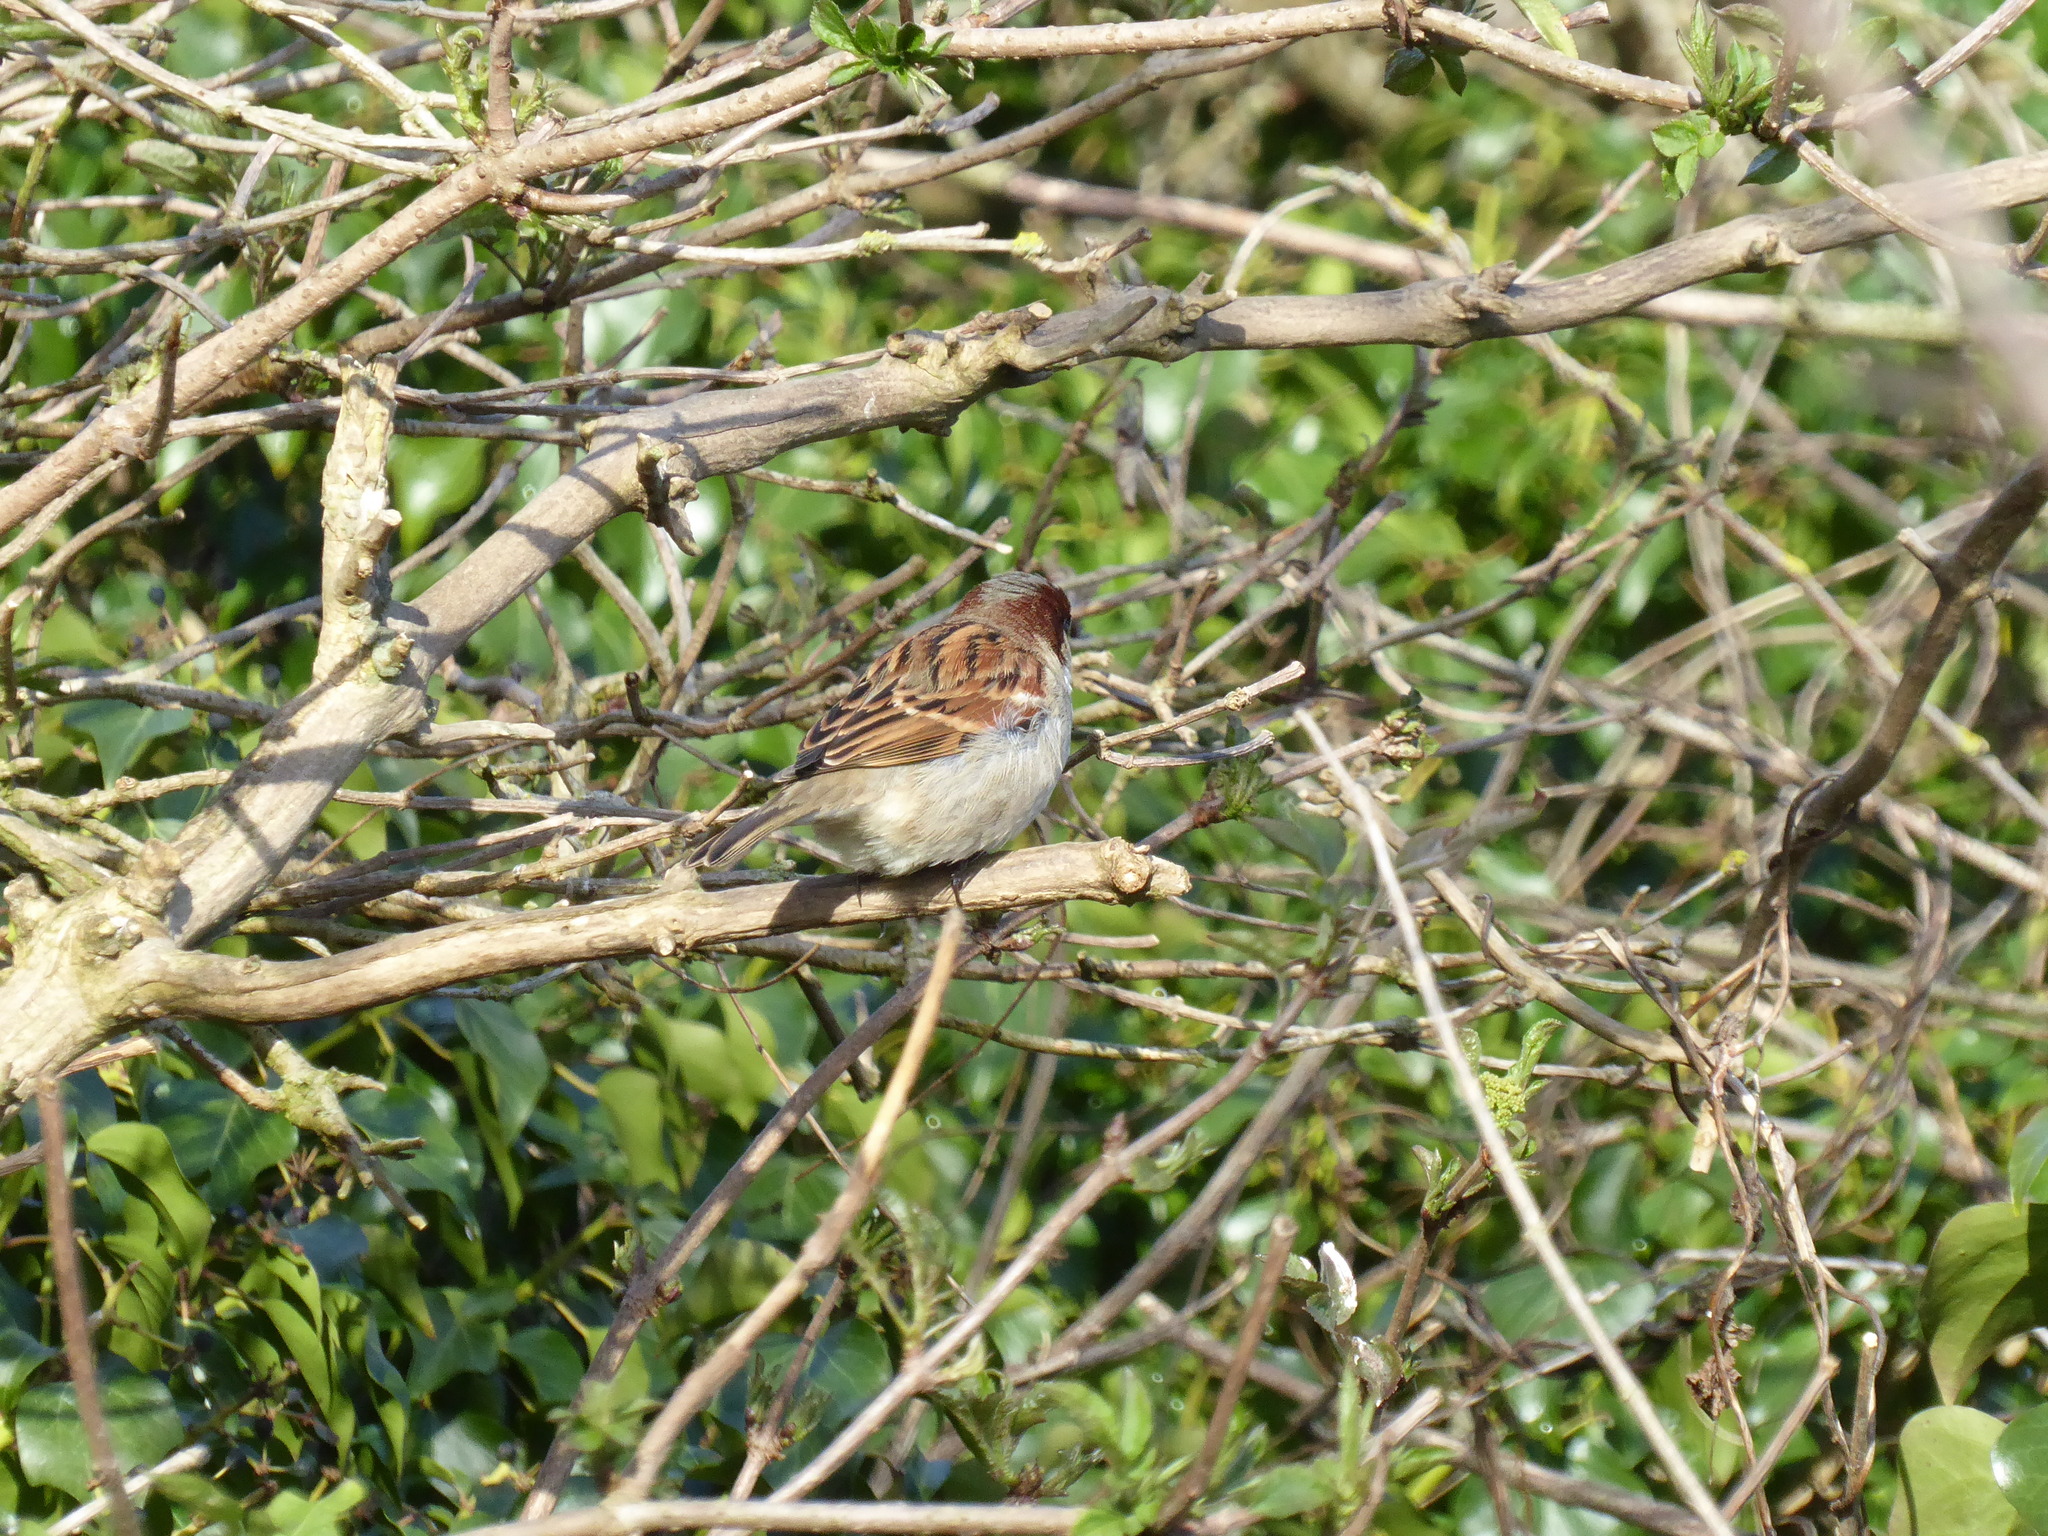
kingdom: Animalia
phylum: Chordata
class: Aves
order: Passeriformes
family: Passeridae
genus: Passer
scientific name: Passer domesticus
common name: House sparrow
